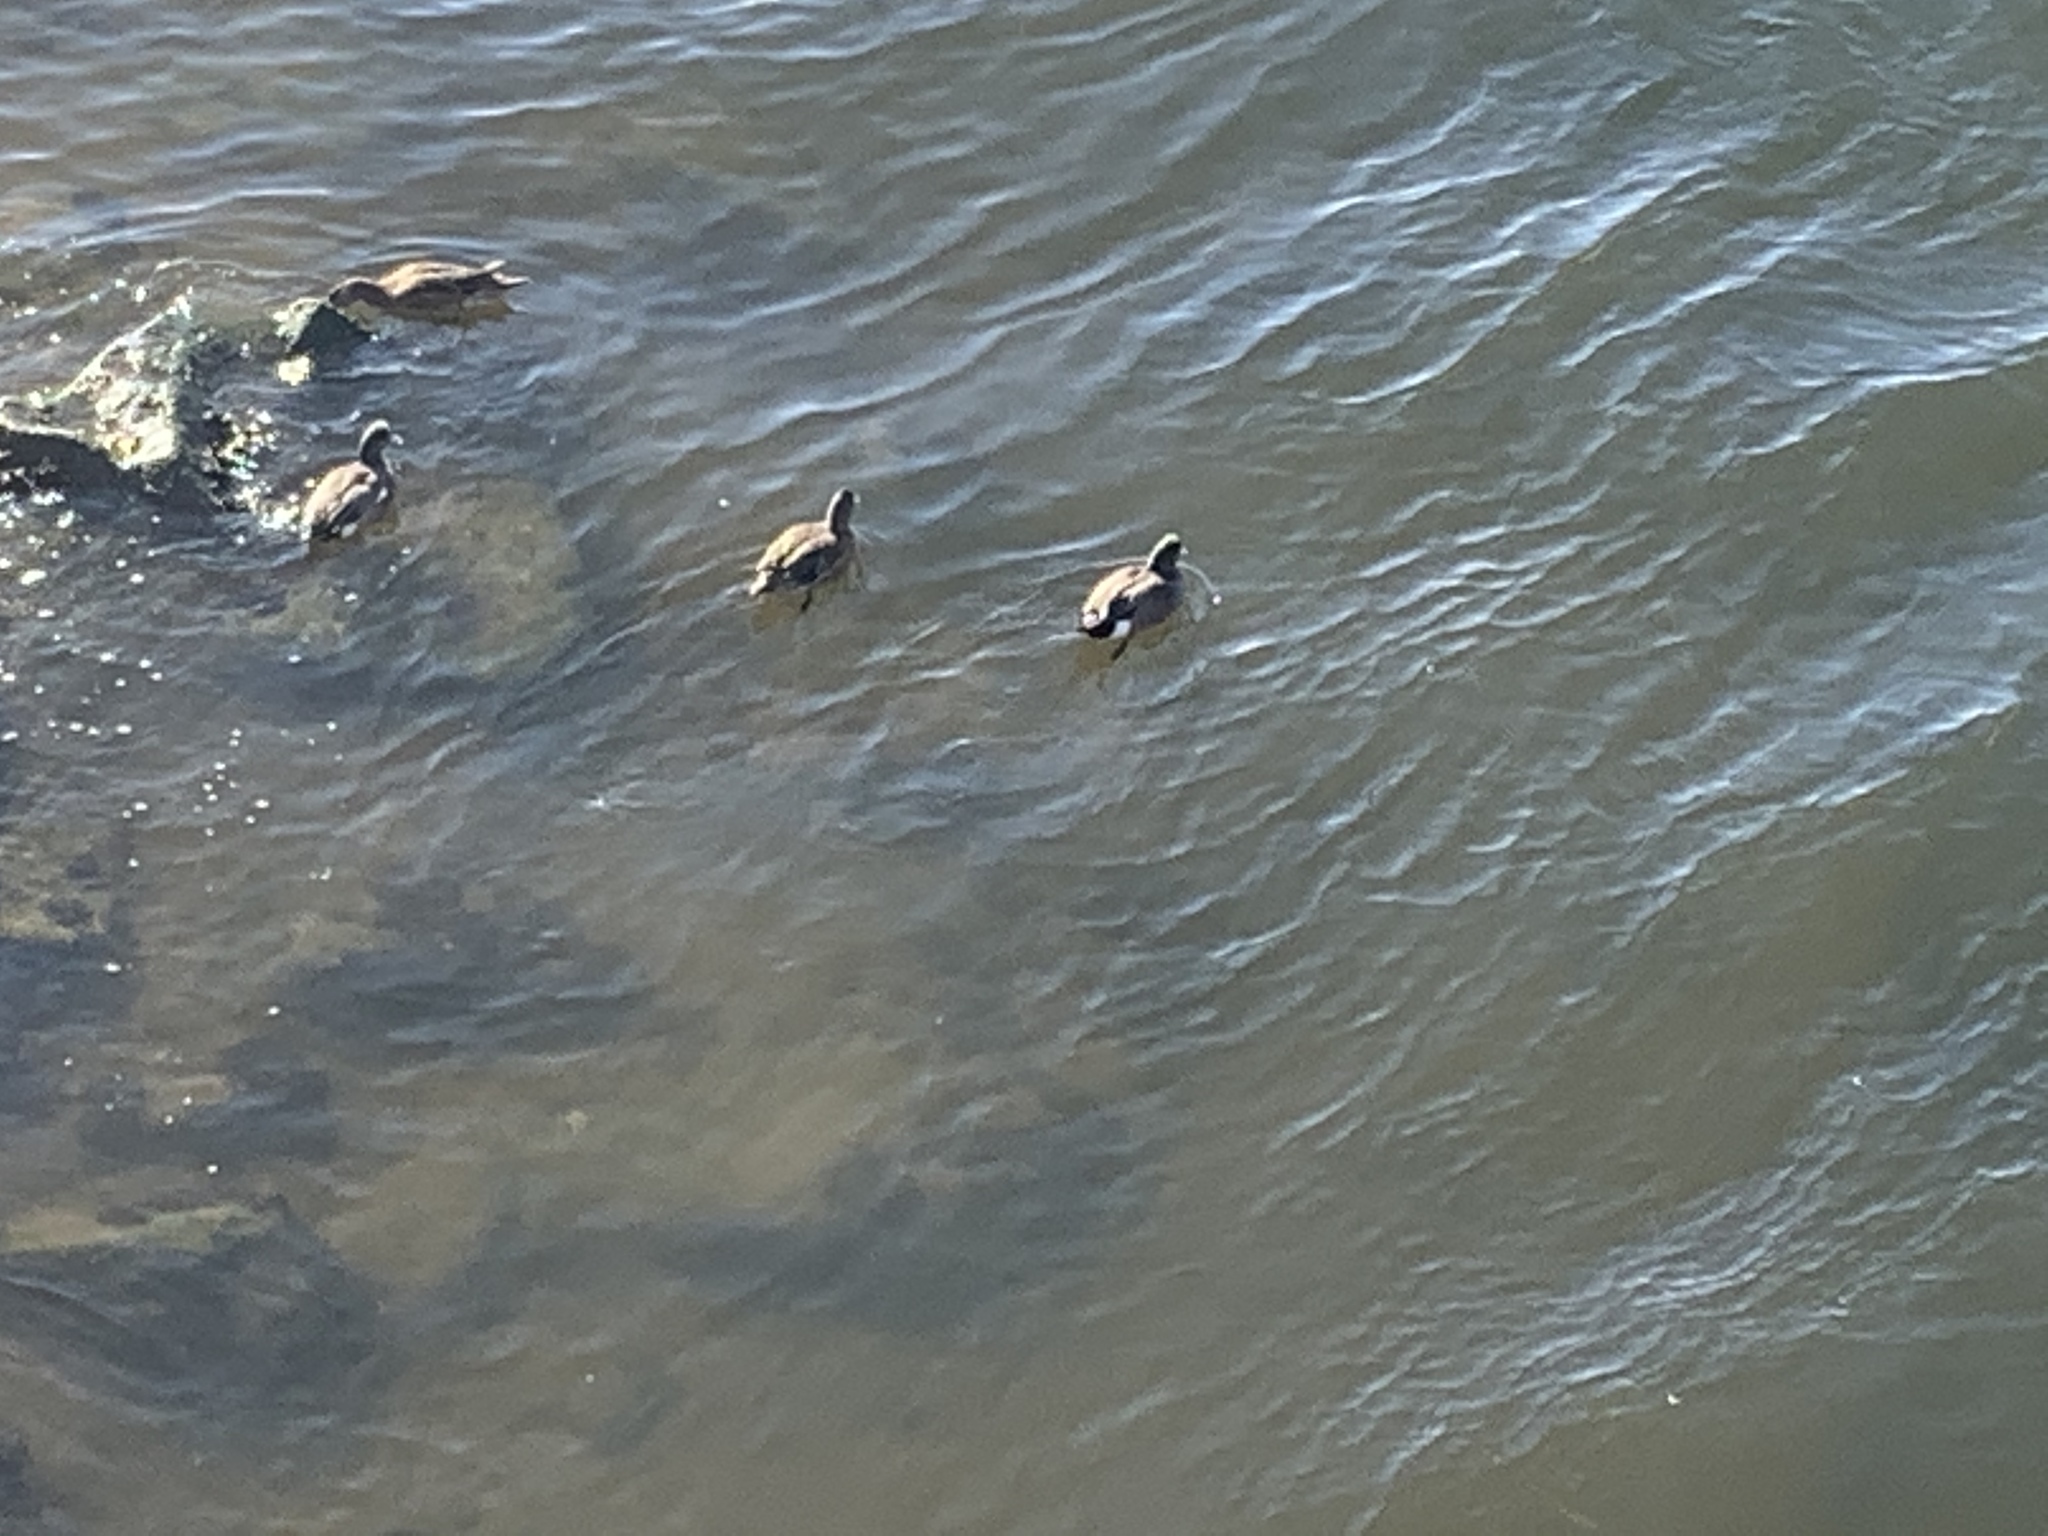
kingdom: Animalia
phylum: Chordata
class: Aves
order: Anseriformes
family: Anatidae
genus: Mareca
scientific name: Mareca americana
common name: American wigeon
